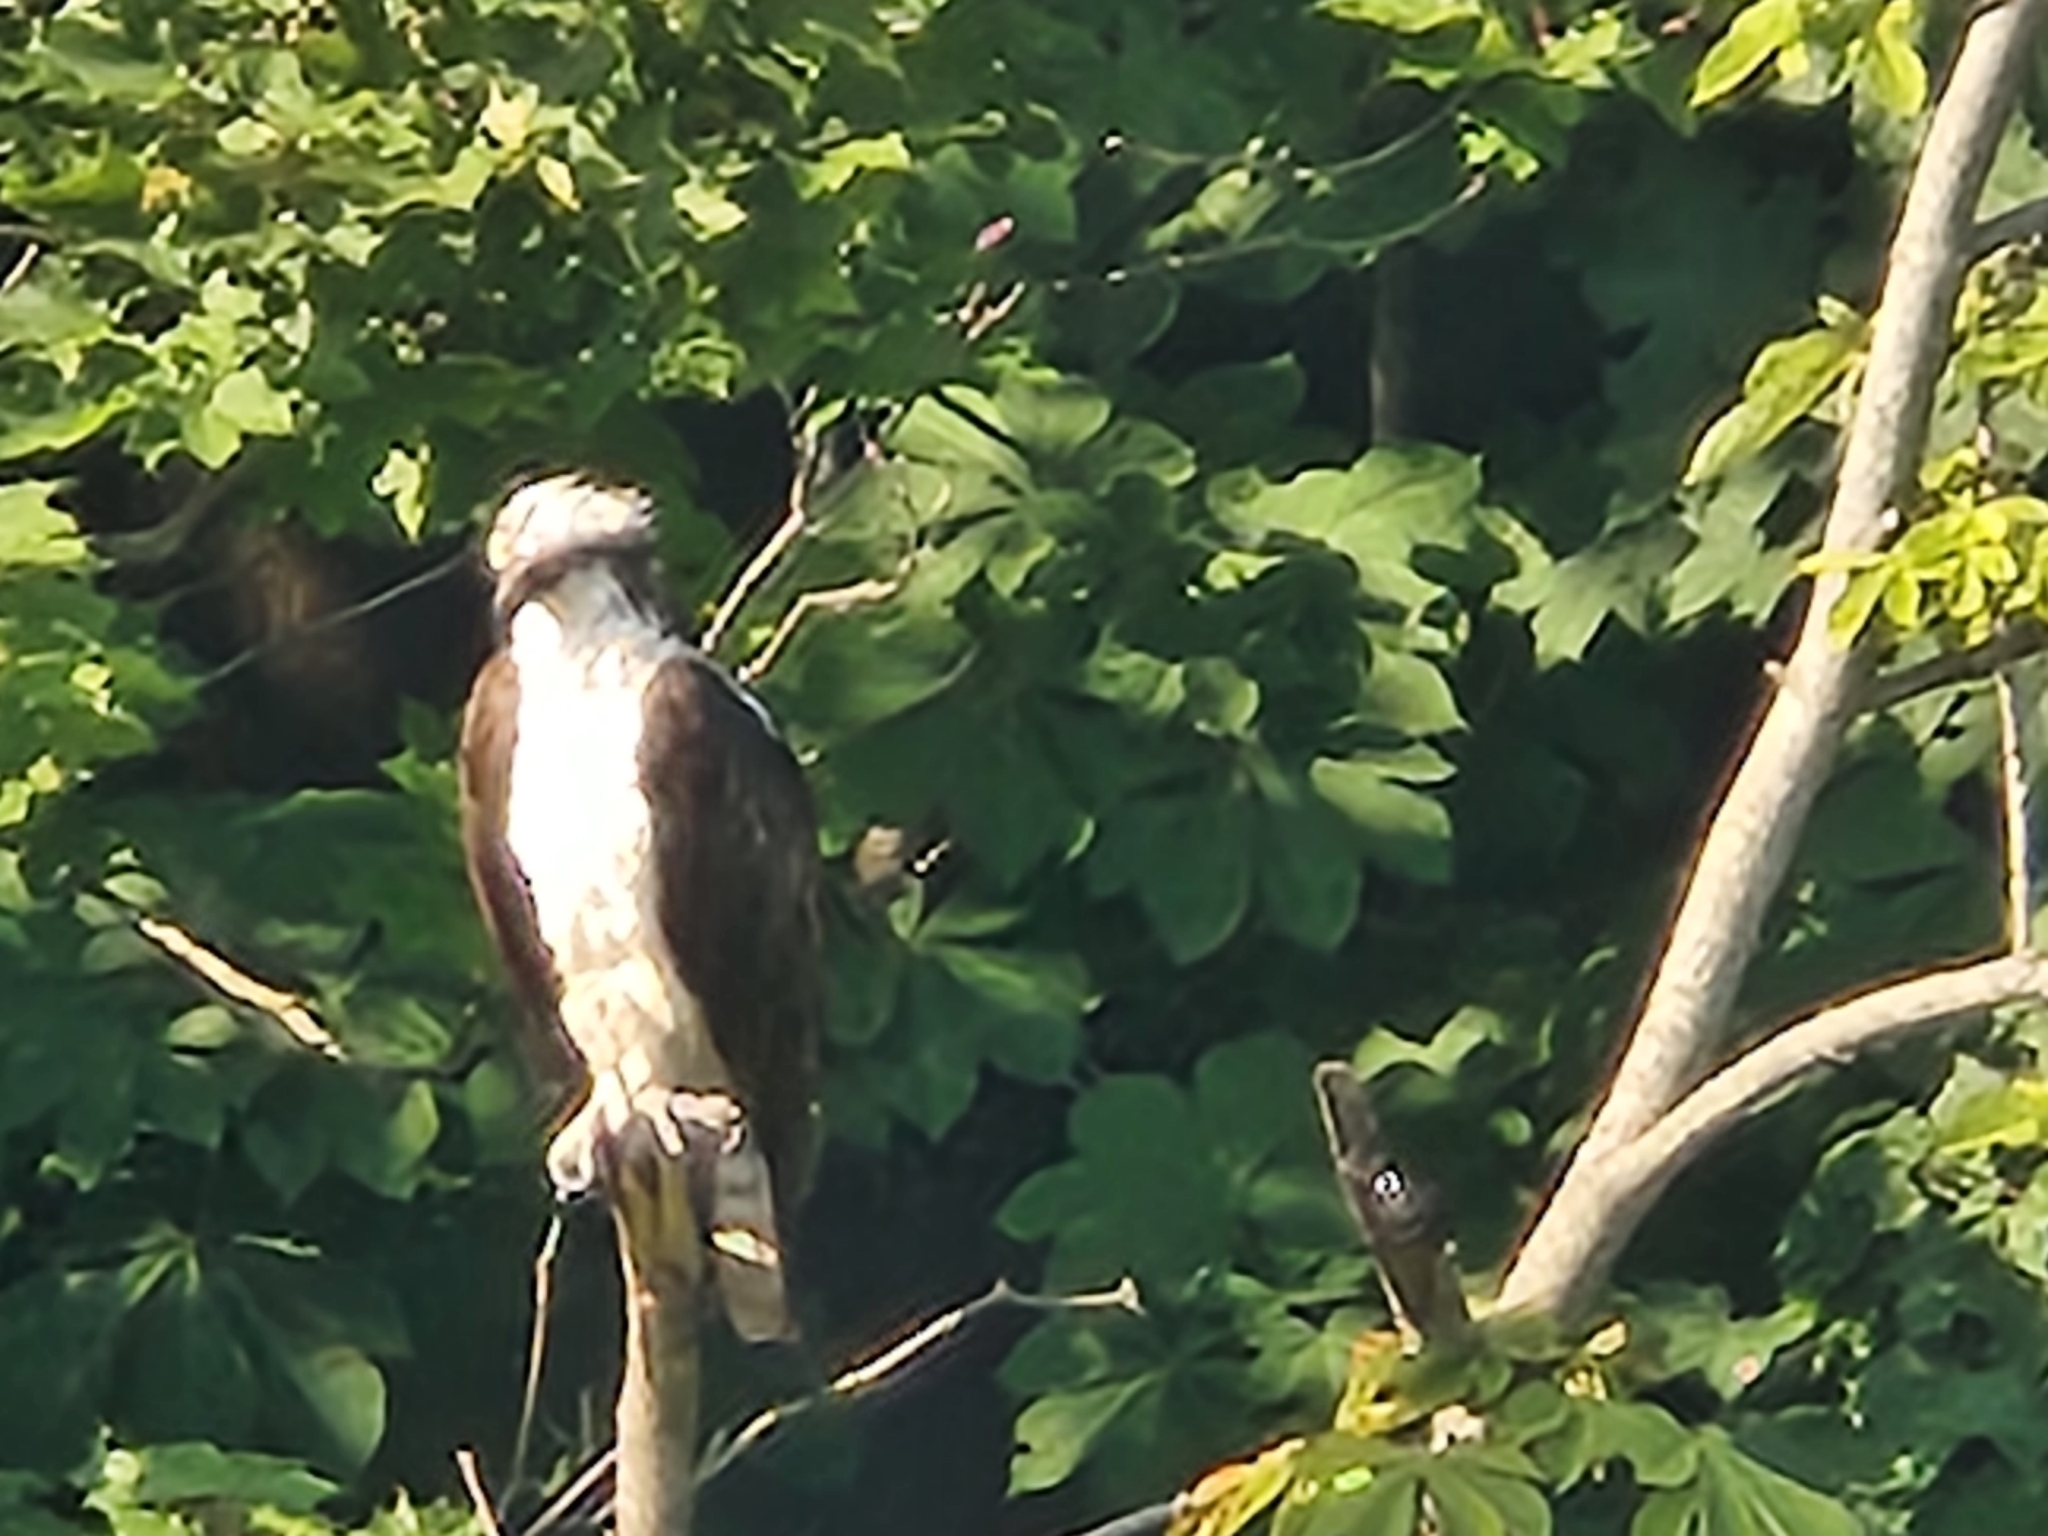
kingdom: Animalia
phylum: Chordata
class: Aves
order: Accipitriformes
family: Pandionidae
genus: Pandion
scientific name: Pandion haliaetus
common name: Osprey
